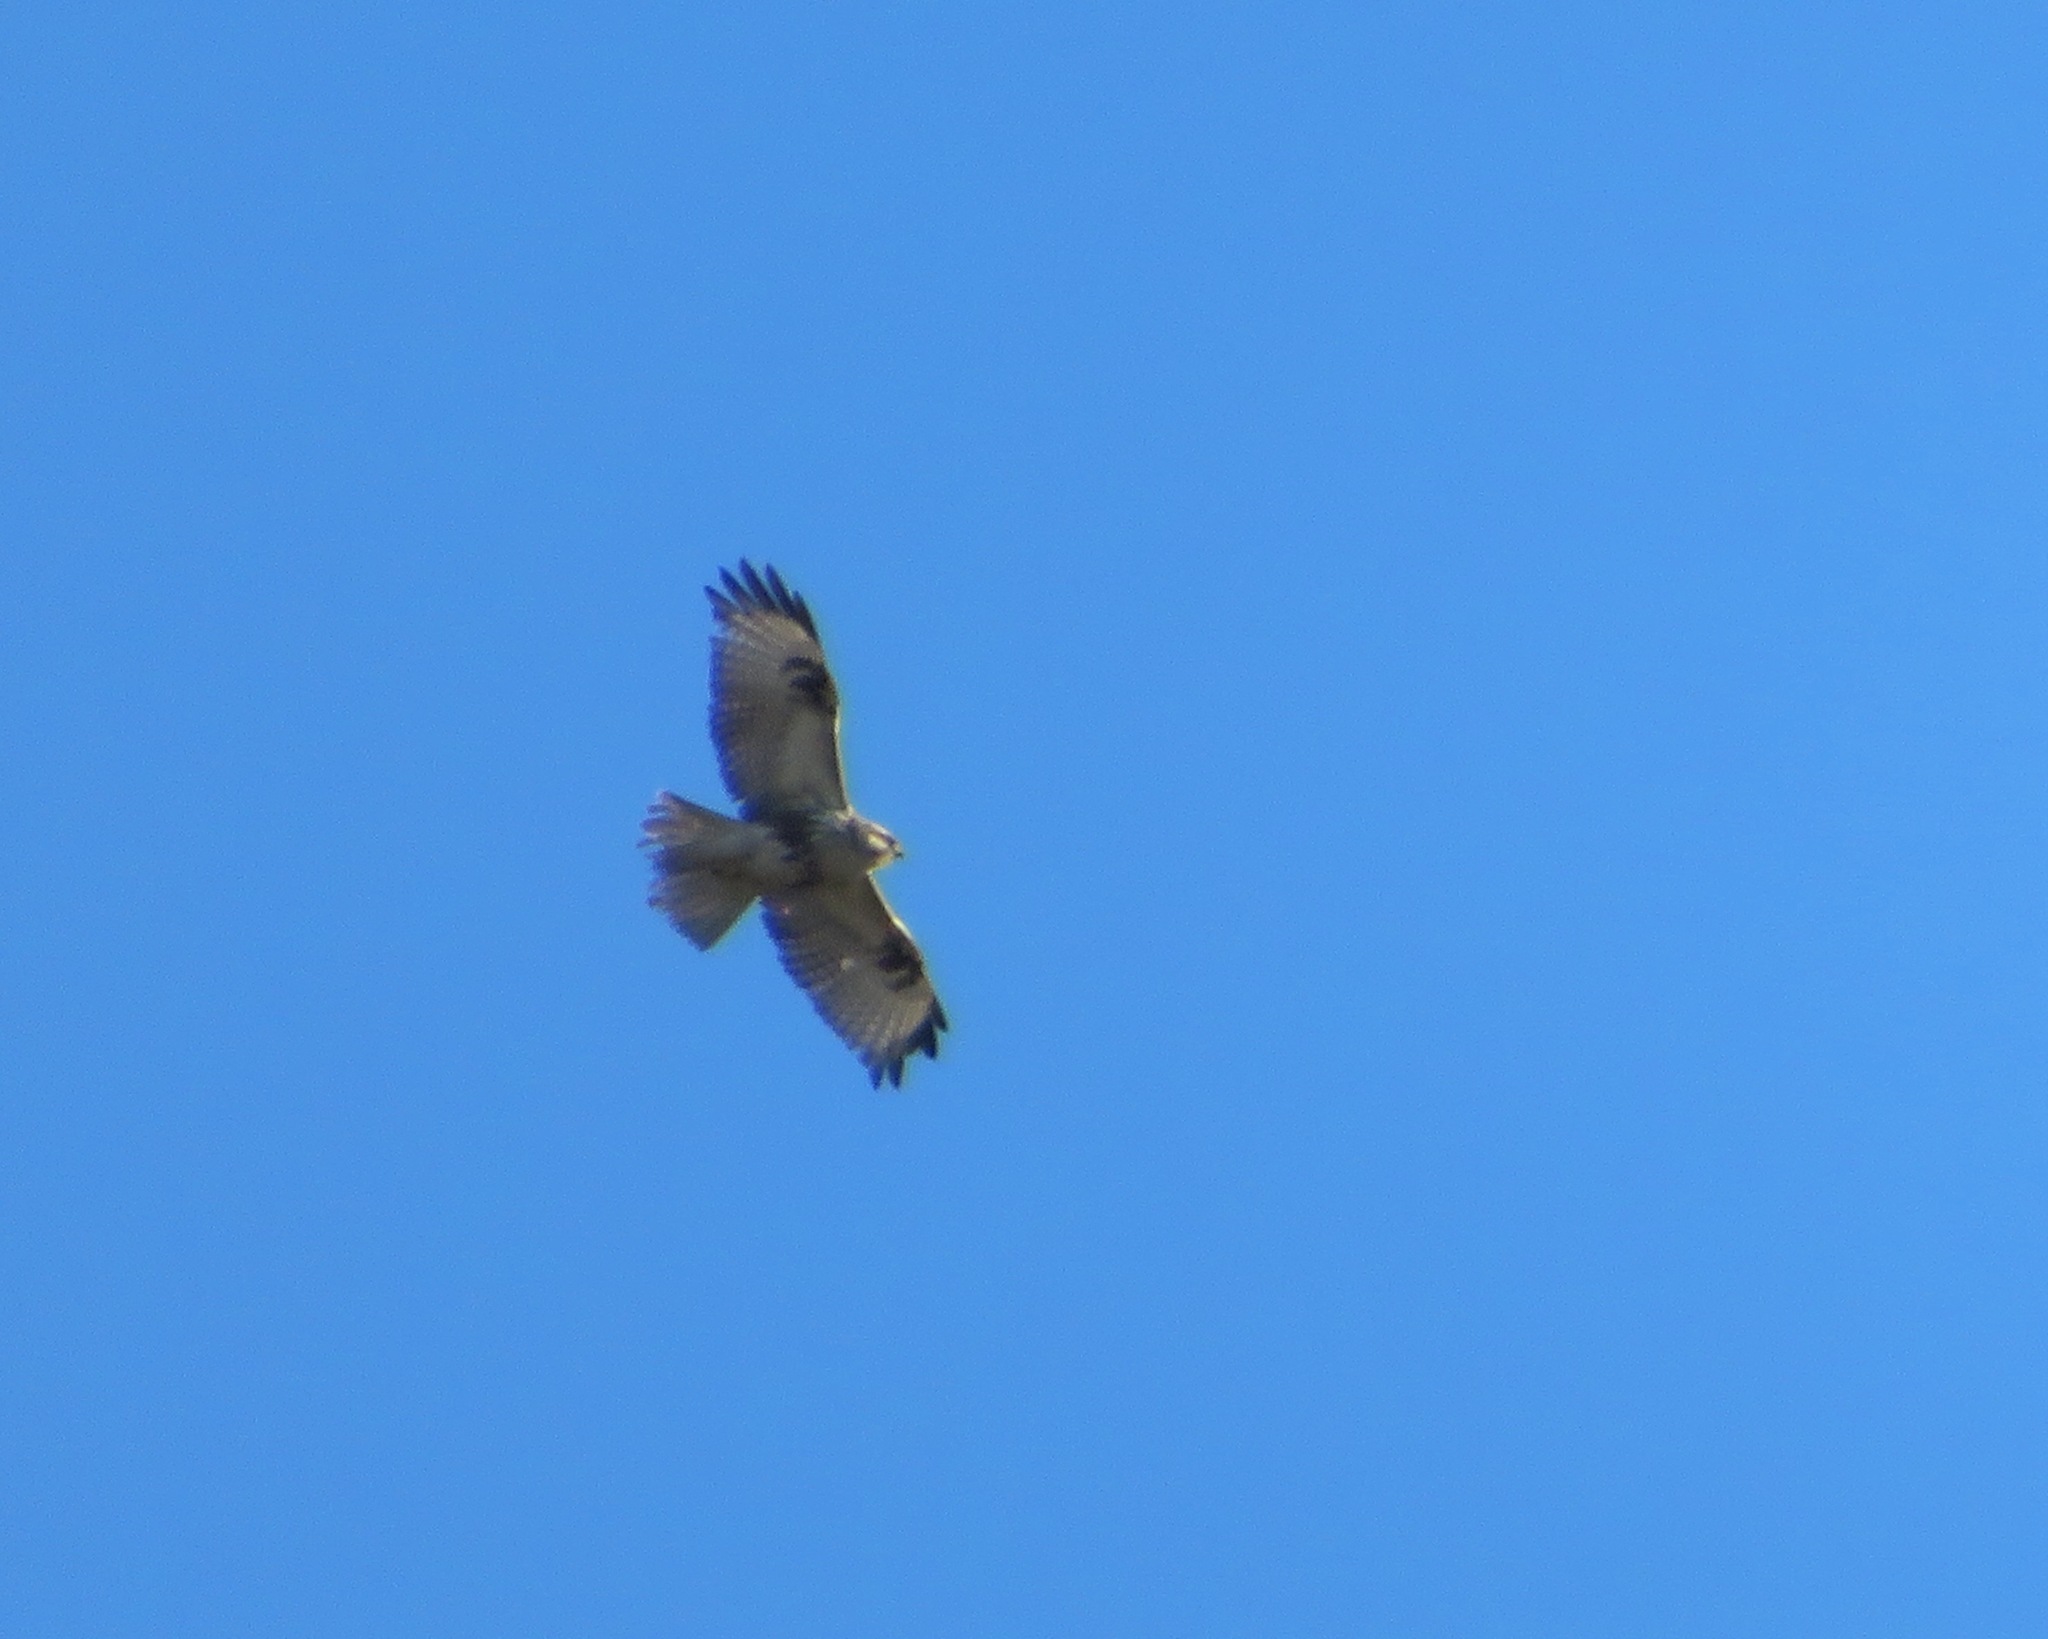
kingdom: Animalia
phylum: Chordata
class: Aves
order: Accipitriformes
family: Accipitridae
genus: Buteo
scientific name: Buteo japonicus
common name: Eastern buzzard
